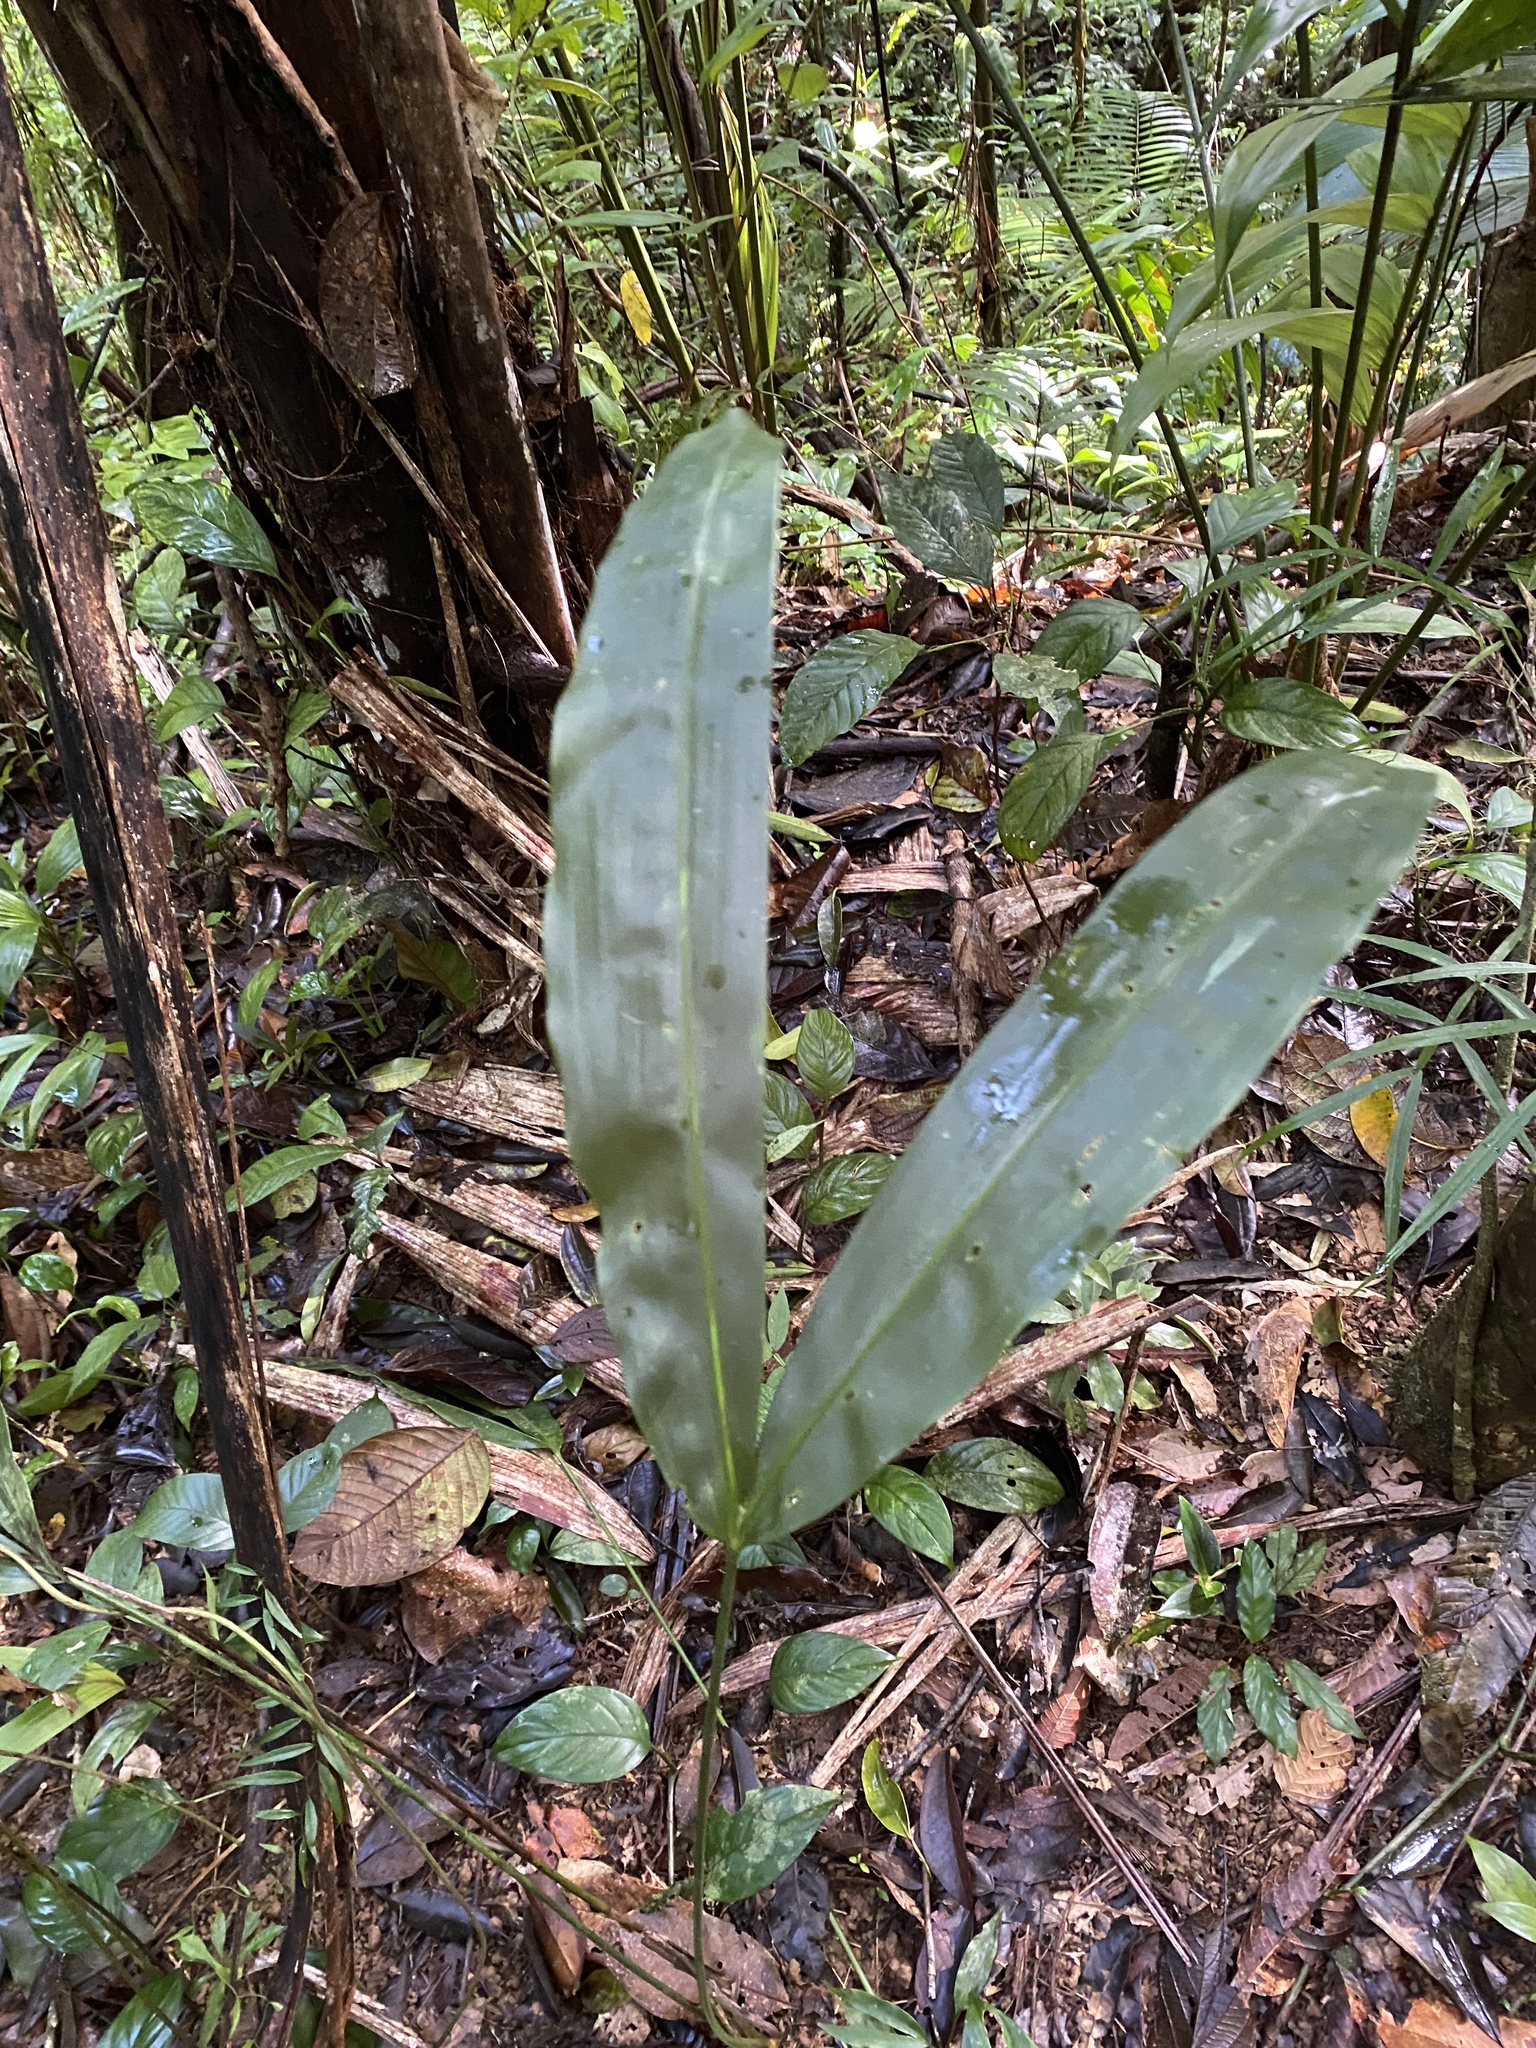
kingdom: Plantae
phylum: Tracheophyta
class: Liliopsida
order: Pandanales
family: Cyclanthaceae
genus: Cyclanthus
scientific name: Cyclanthus bipartitus
